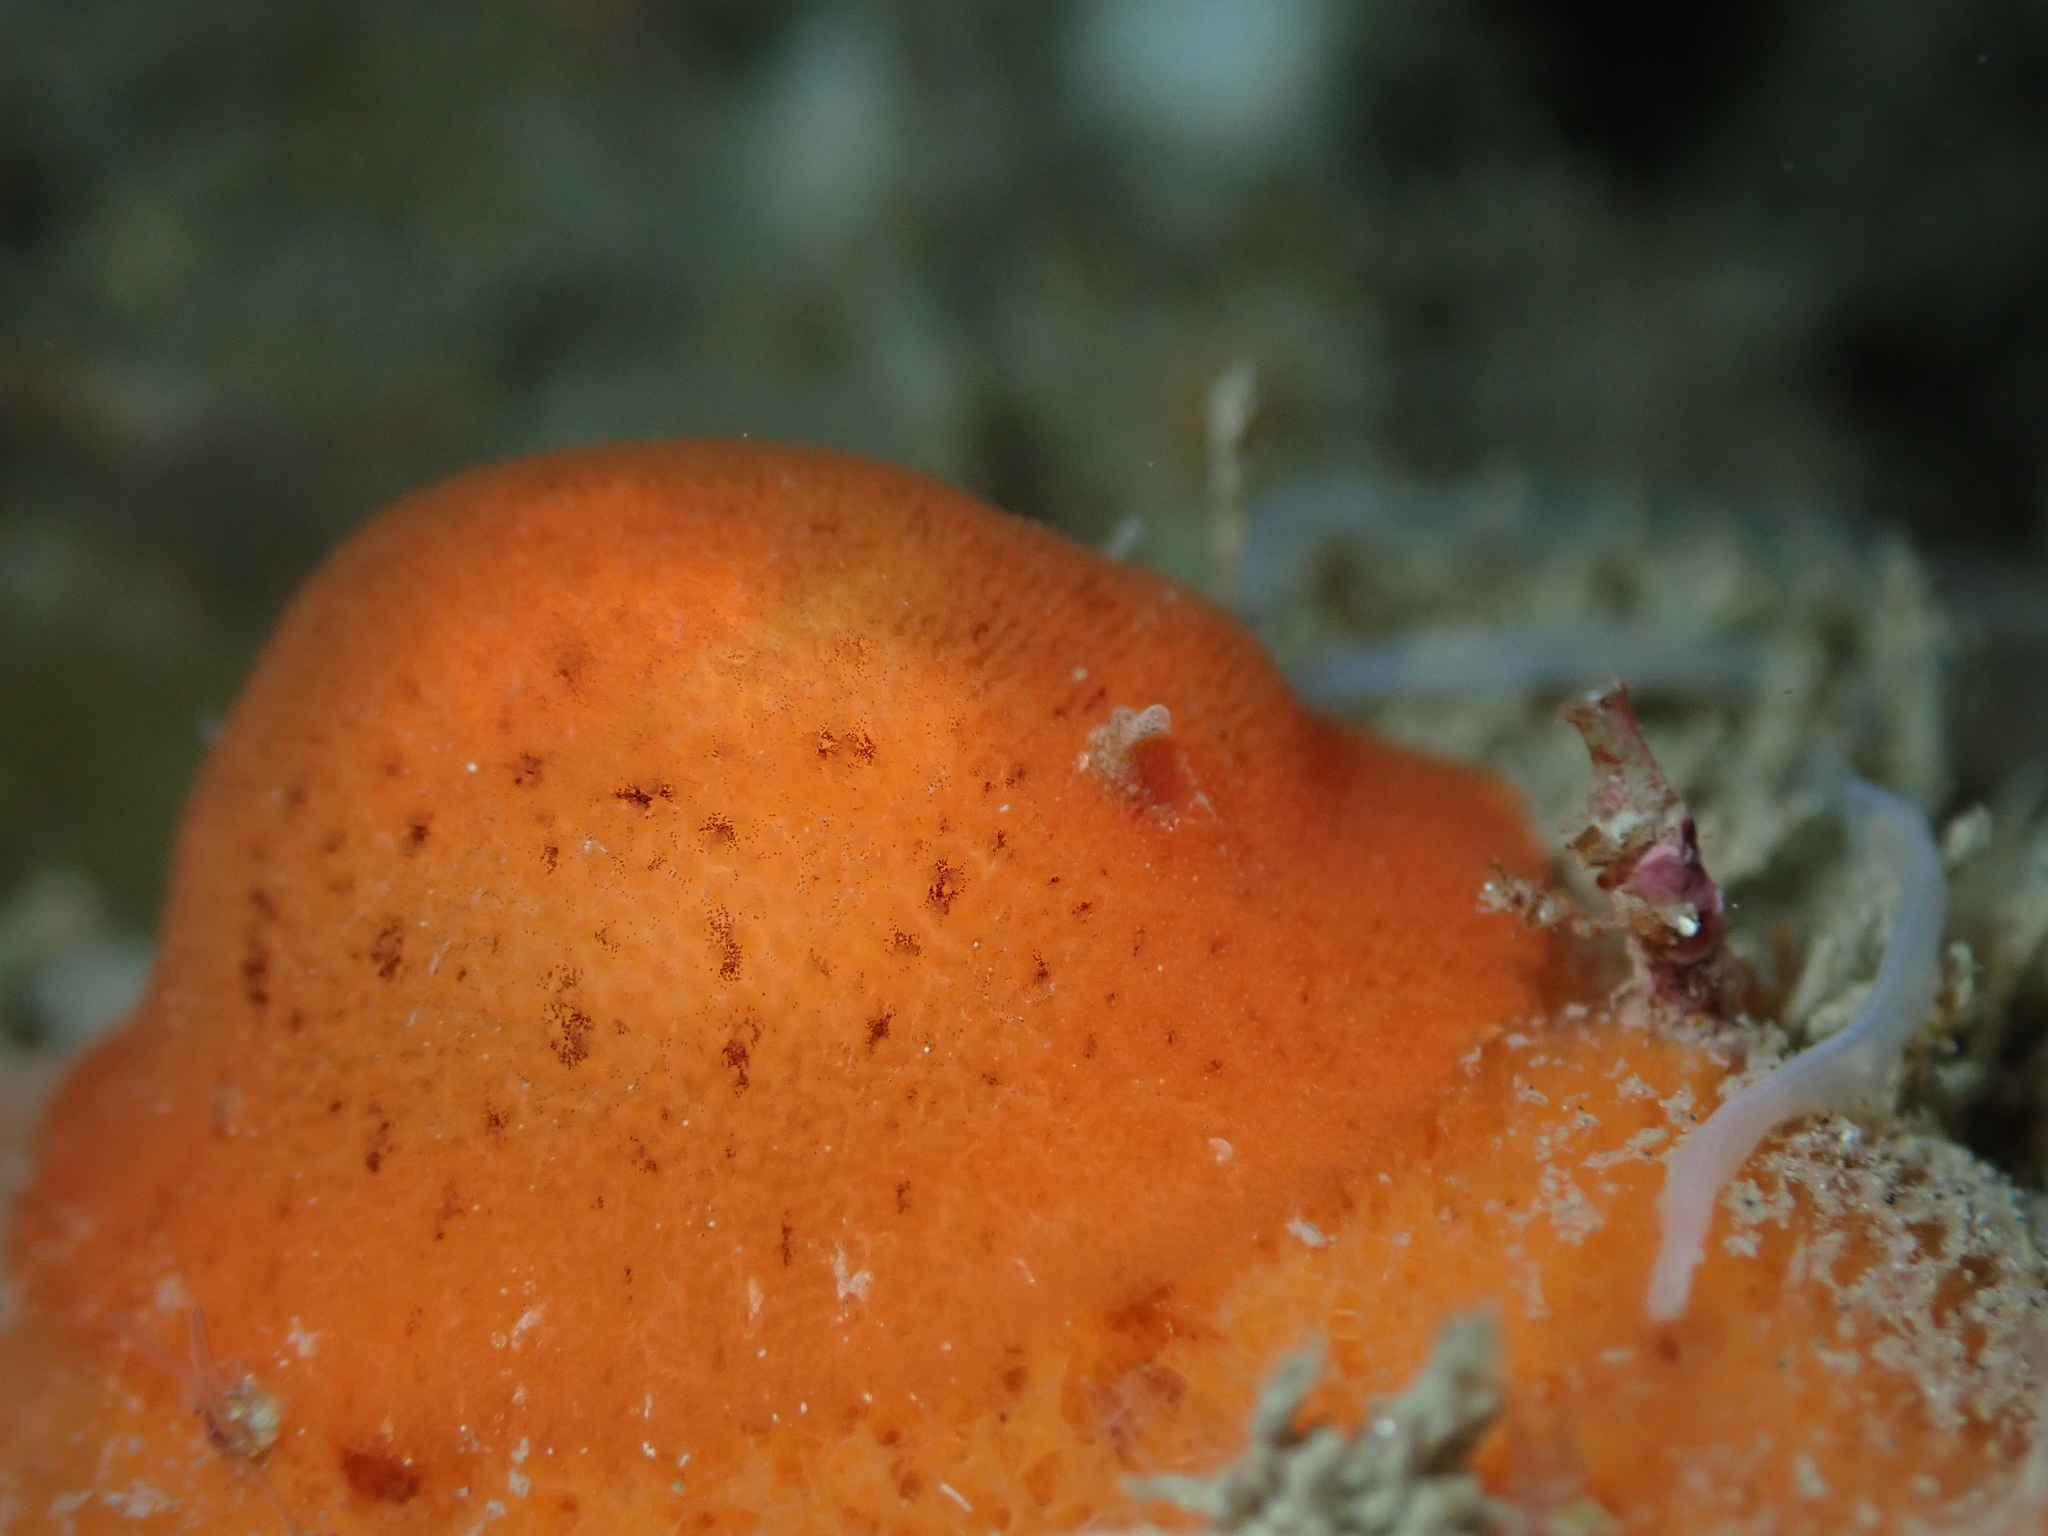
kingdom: Animalia
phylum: Mollusca
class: Gastropoda
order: Nudibranchia
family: Discodorididae
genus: Rostanga
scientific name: Rostanga muscula
